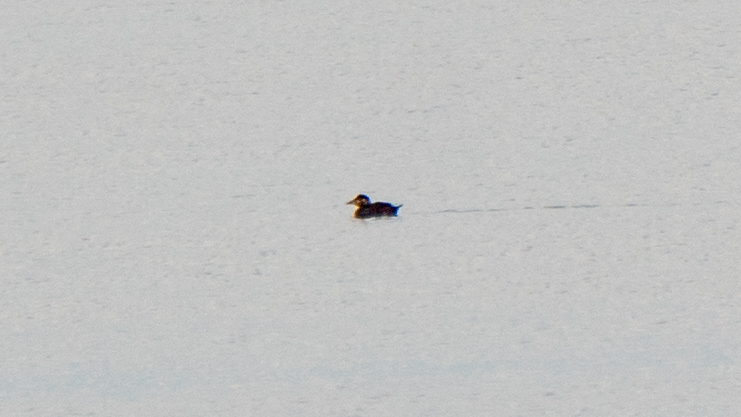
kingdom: Animalia
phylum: Chordata
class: Aves
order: Anseriformes
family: Anatidae
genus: Melanitta
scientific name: Melanitta perspicillata
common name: Surf scoter
